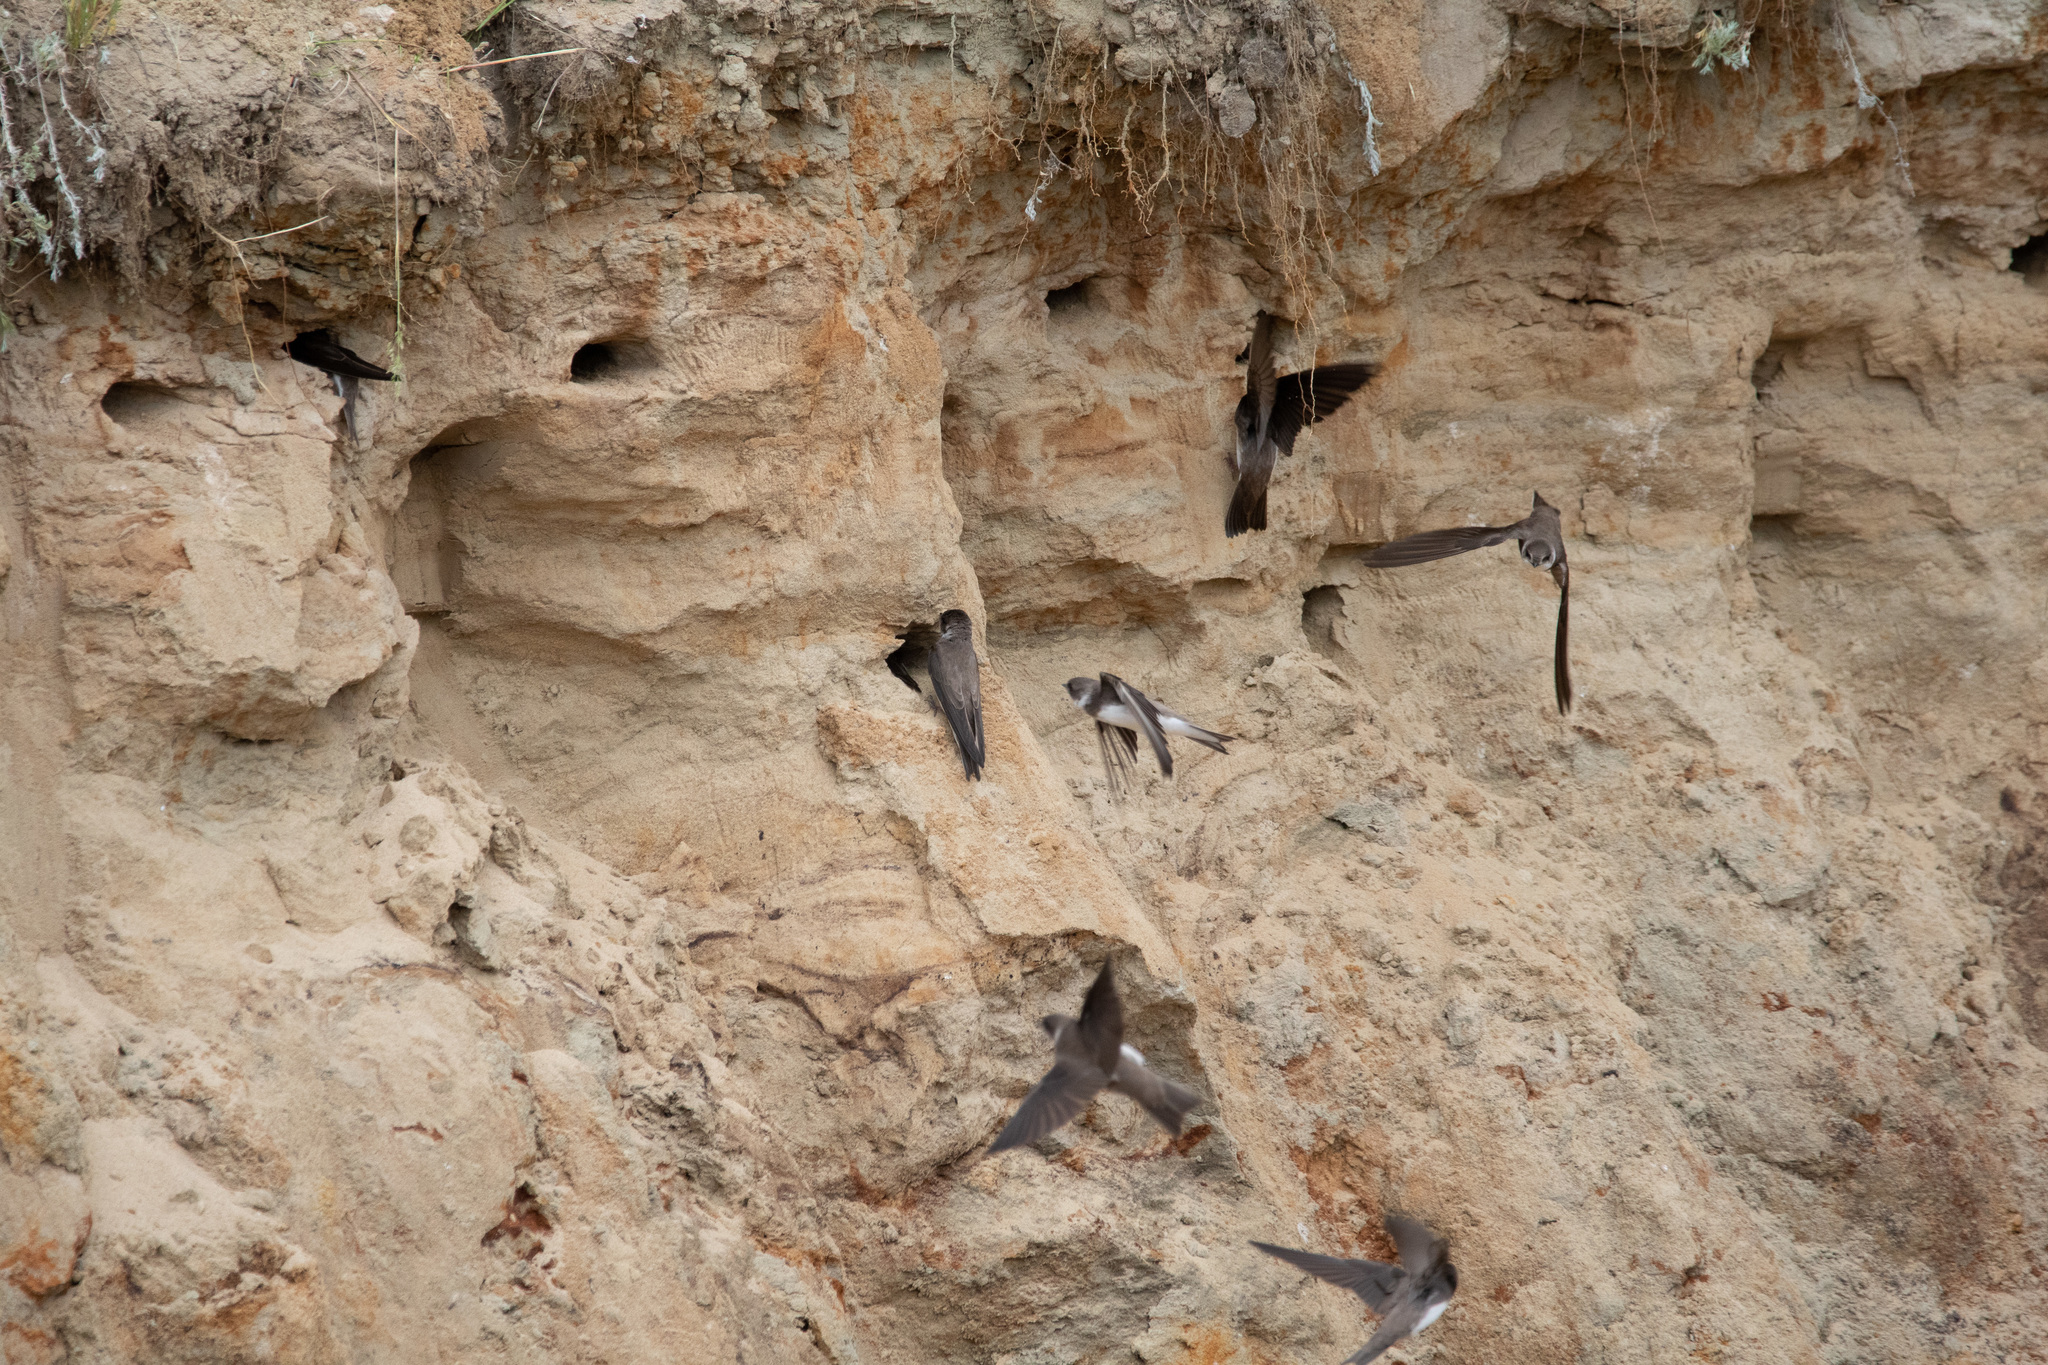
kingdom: Animalia
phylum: Chordata
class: Aves
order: Passeriformes
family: Hirundinidae
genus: Riparia
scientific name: Riparia riparia
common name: Sand martin
